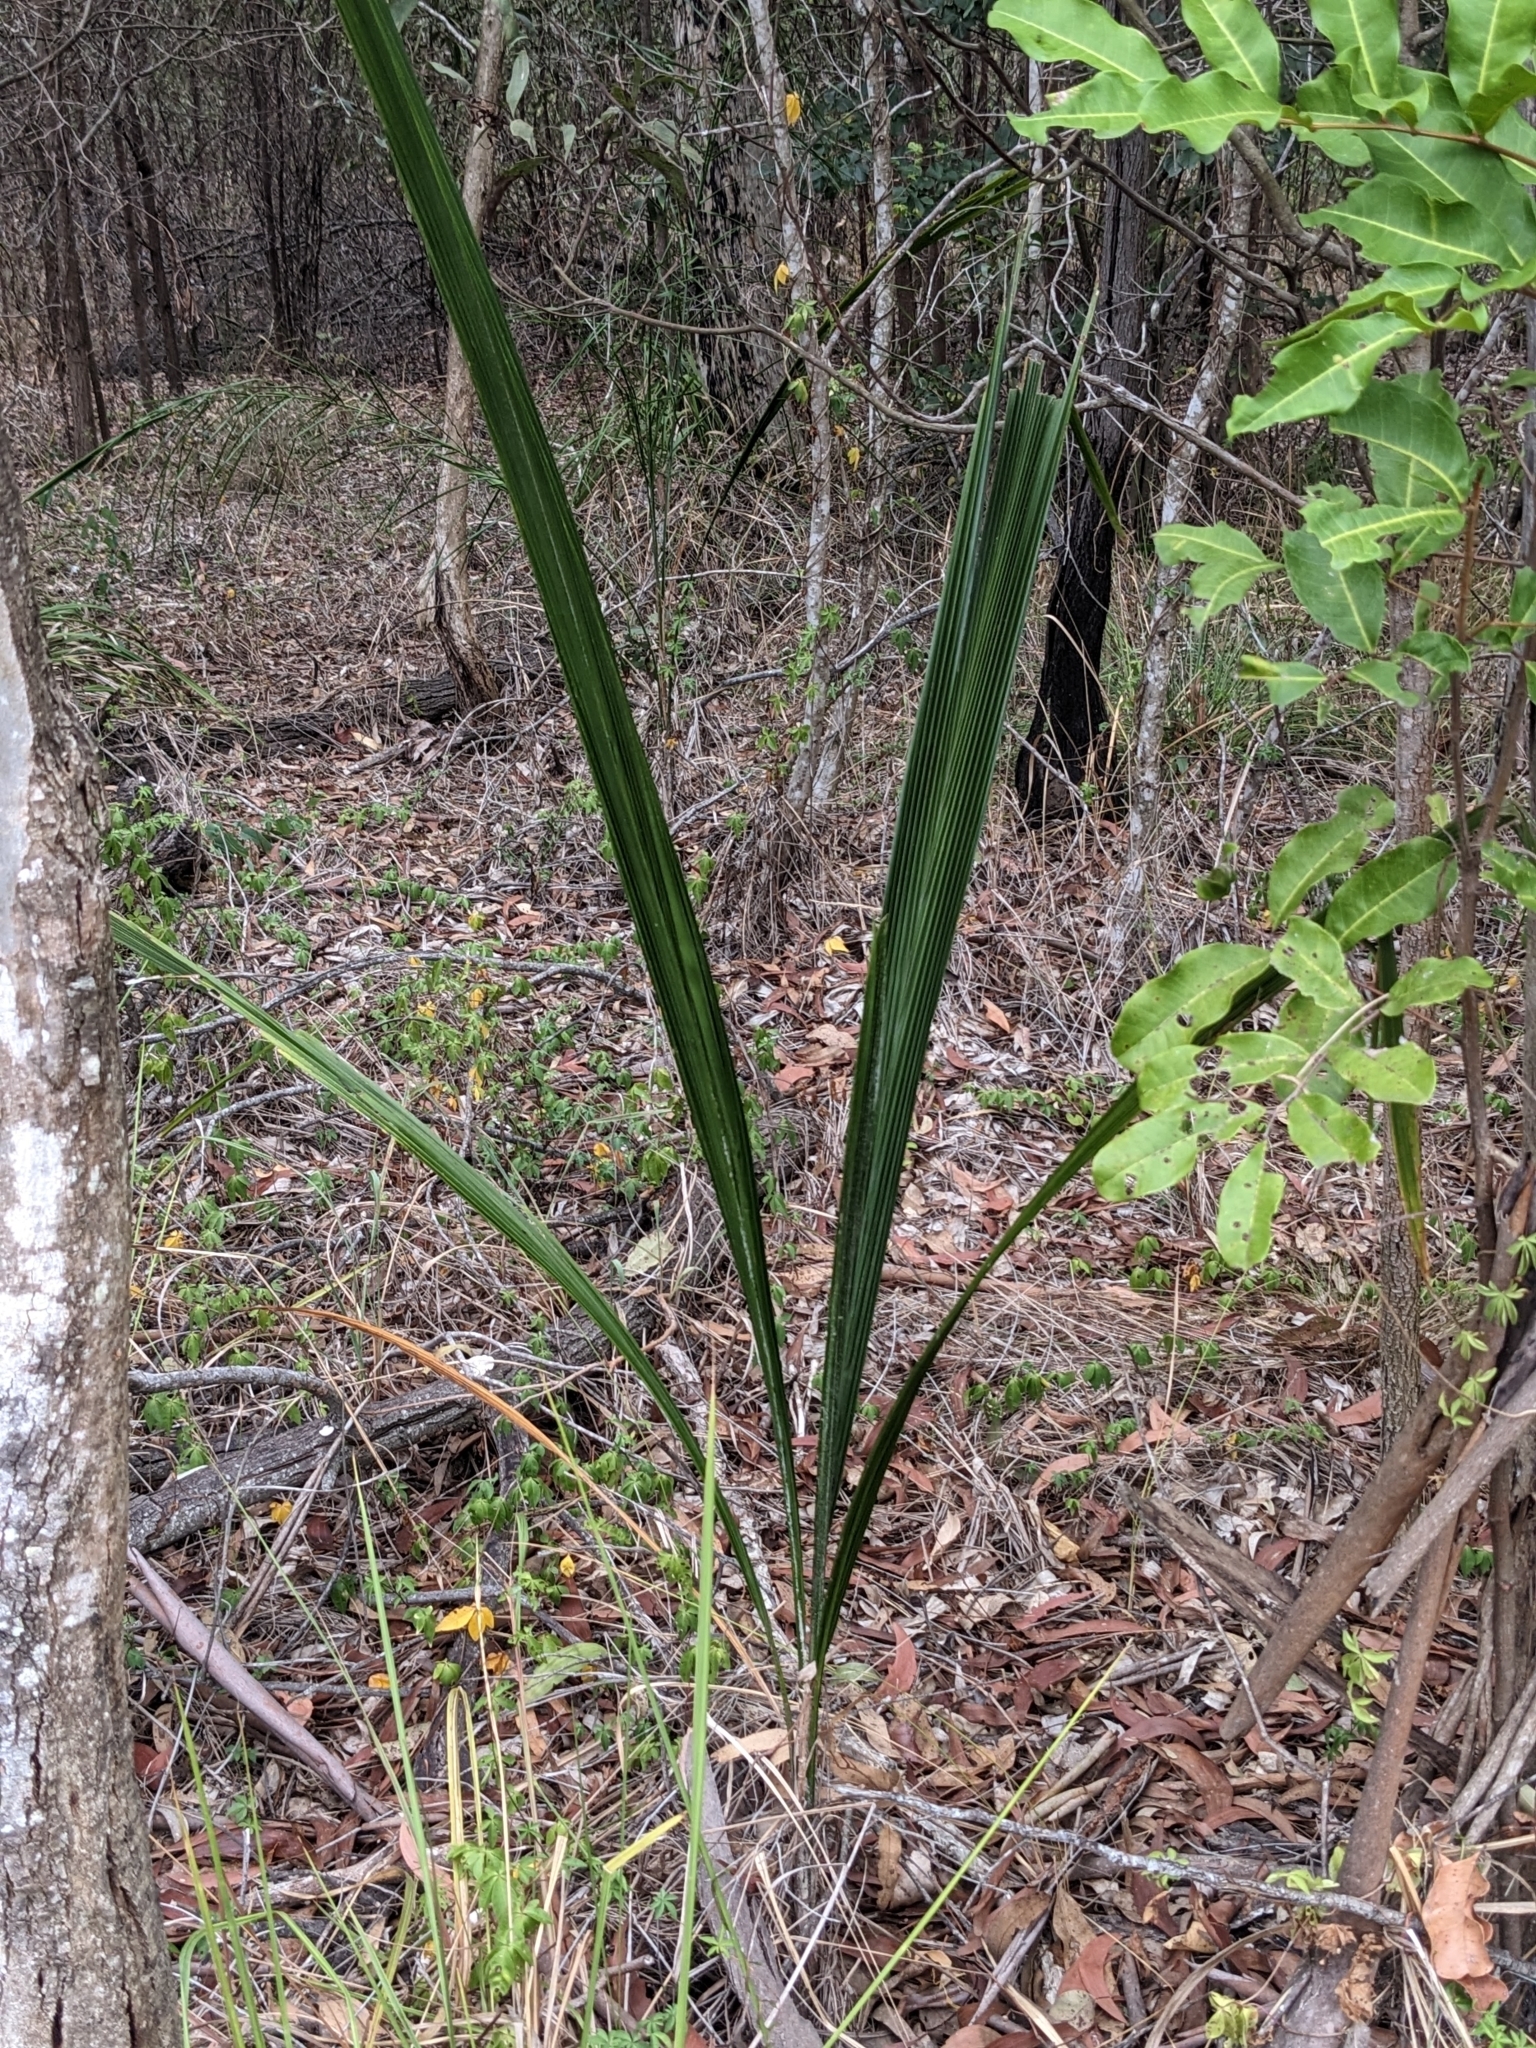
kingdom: Plantae
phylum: Tracheophyta
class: Liliopsida
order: Arecales
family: Arecaceae
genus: Syagrus
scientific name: Syagrus romanzoffiana
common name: Queen palm
